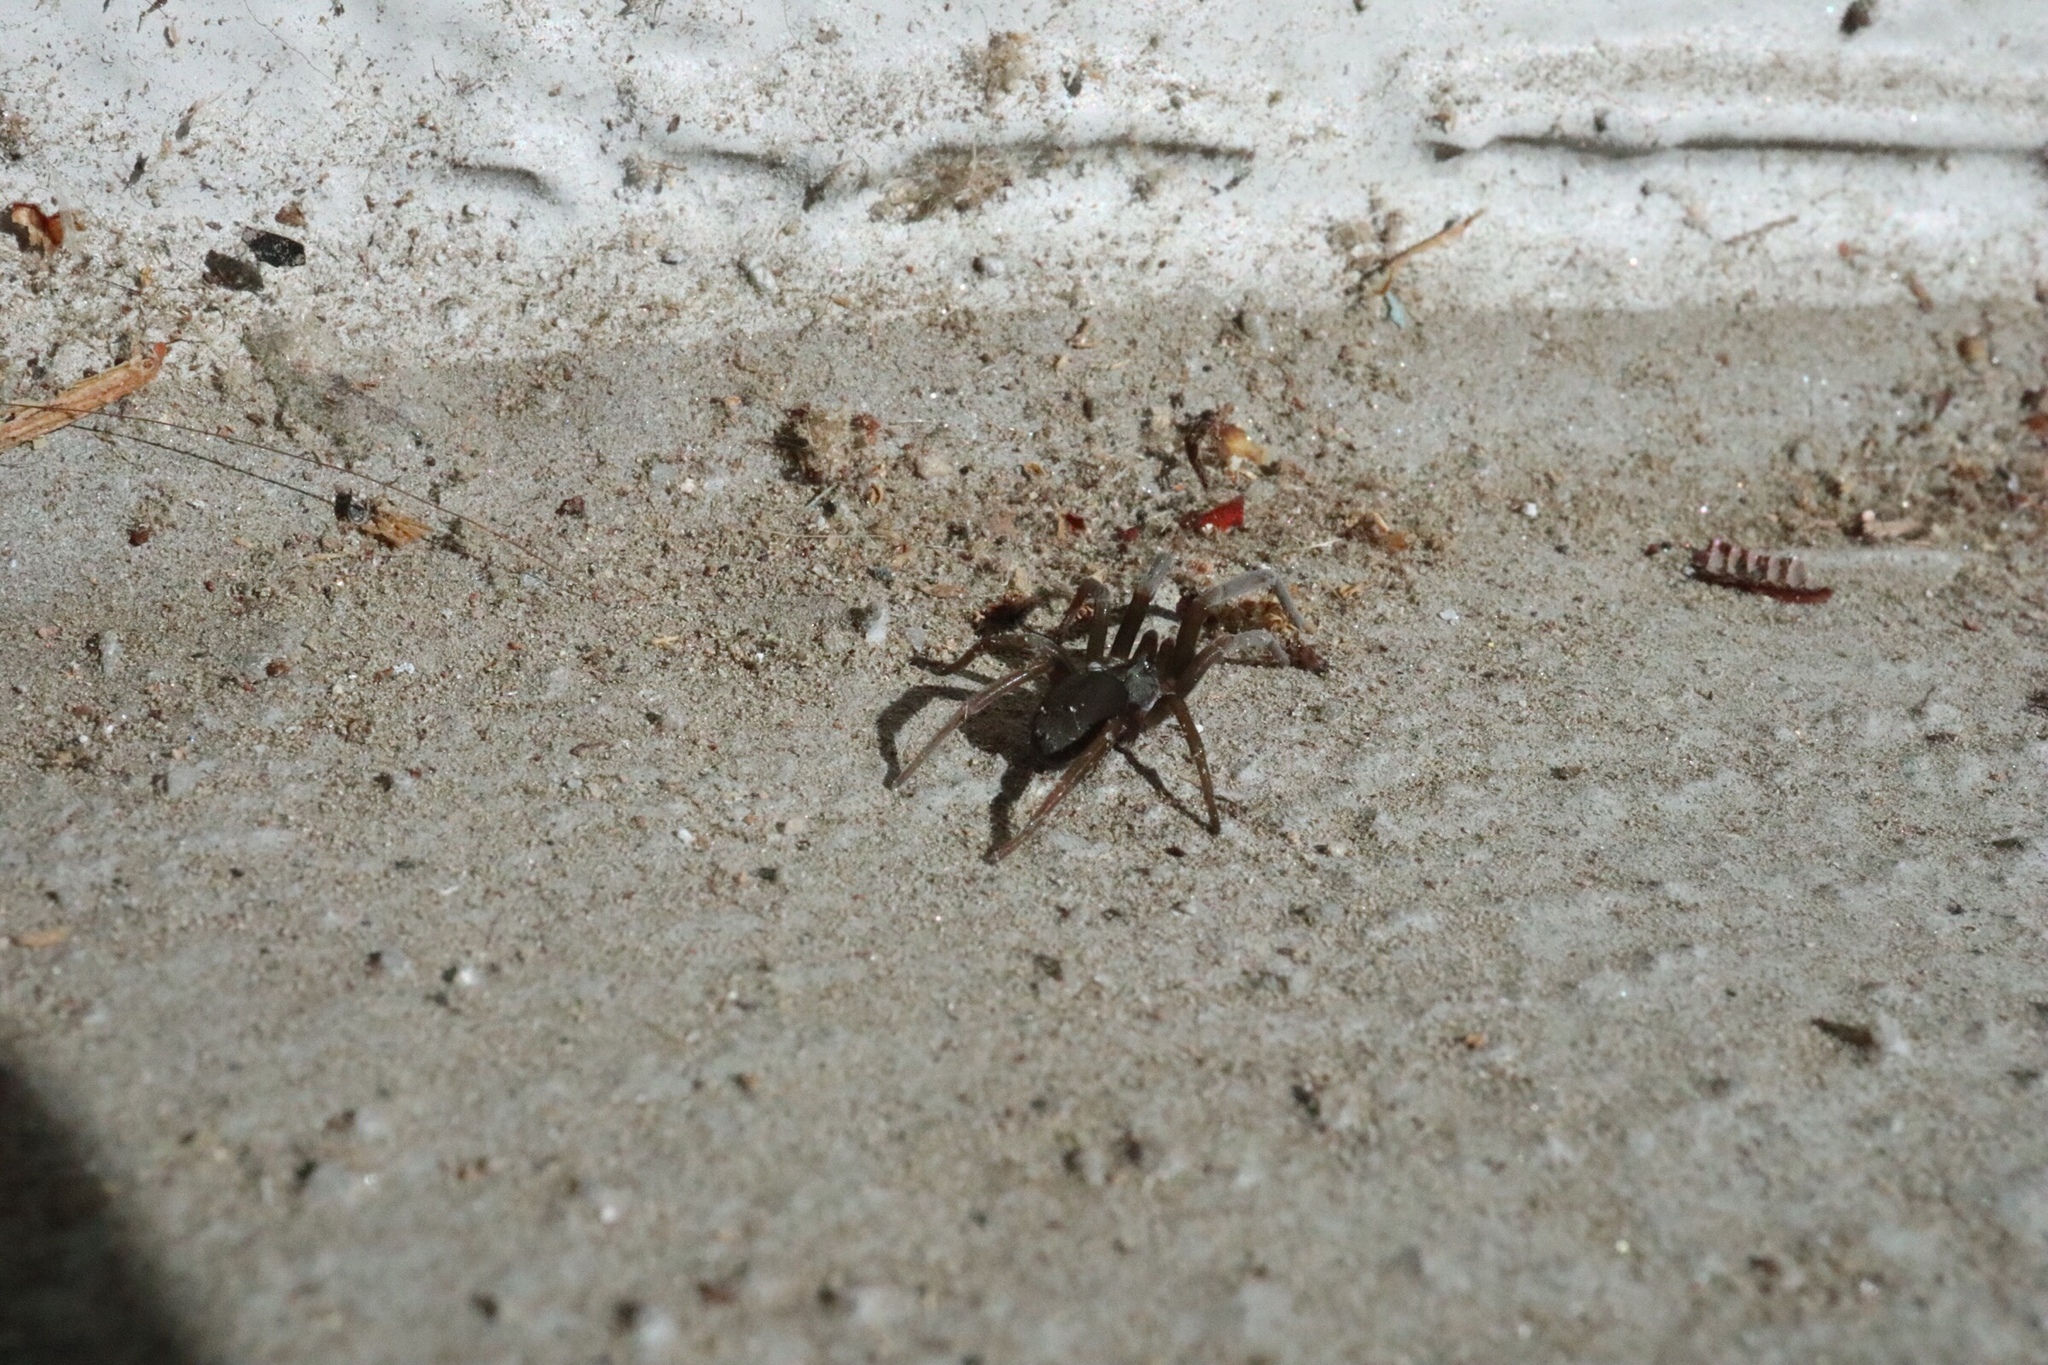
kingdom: Animalia
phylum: Arthropoda
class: Arachnida
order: Araneae
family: Filistatidae
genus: Kukulcania
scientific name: Kukulcania hibernalis
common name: Crevice weaver
